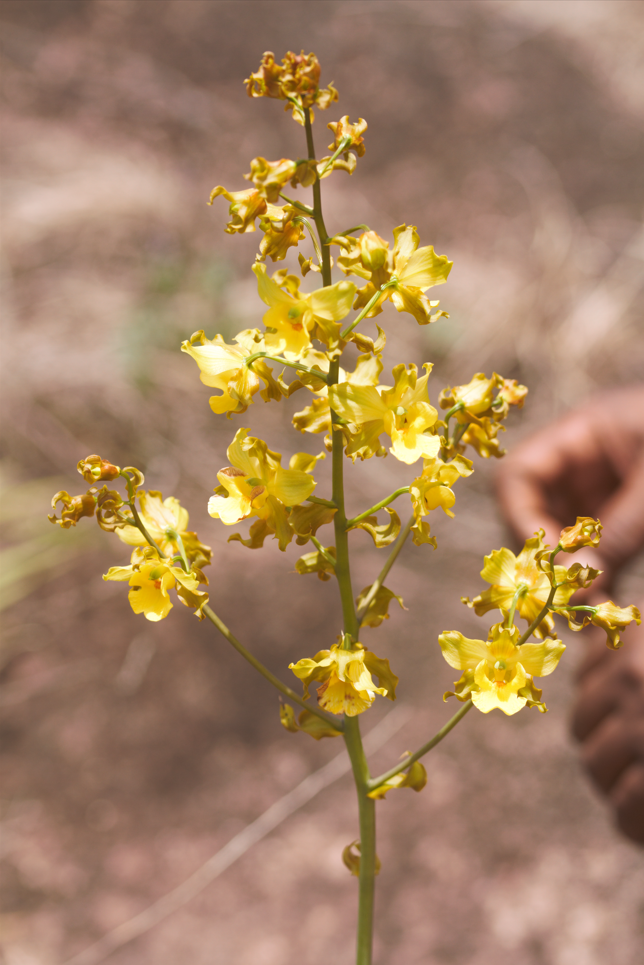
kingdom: Plantae
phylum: Tracheophyta
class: Liliopsida
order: Asparagales
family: Orchidaceae
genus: Cyrtopodium
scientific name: Cyrtopodium andersonii
